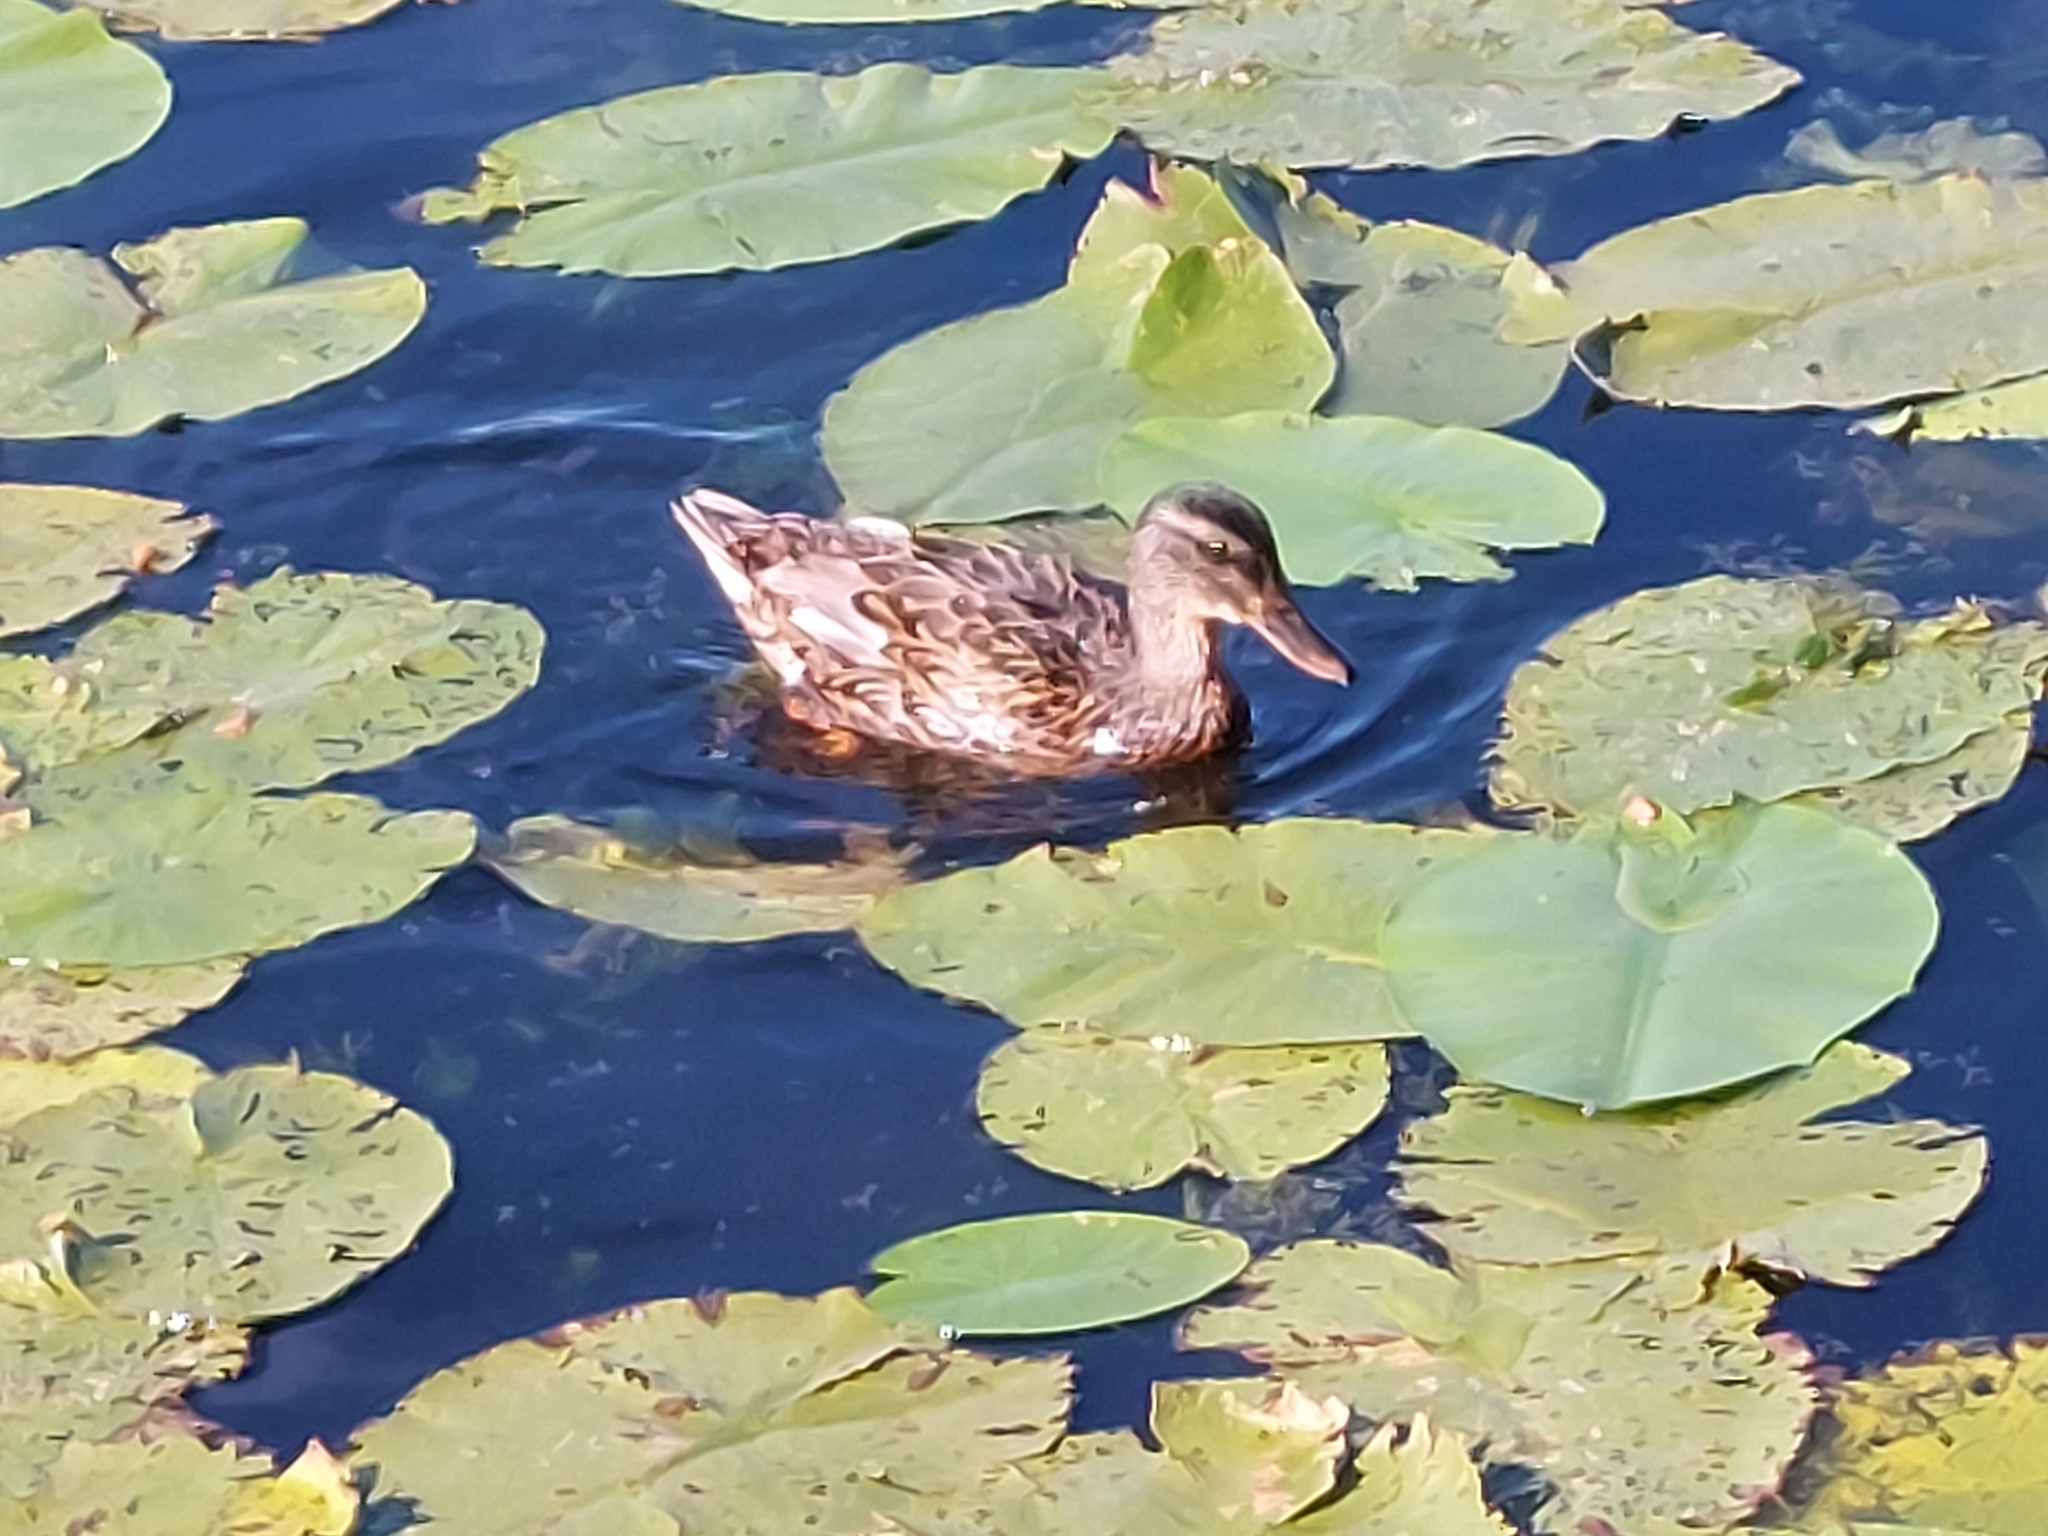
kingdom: Animalia
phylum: Chordata
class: Aves
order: Anseriformes
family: Anatidae
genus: Anas
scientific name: Anas platyrhynchos
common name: Mallard
